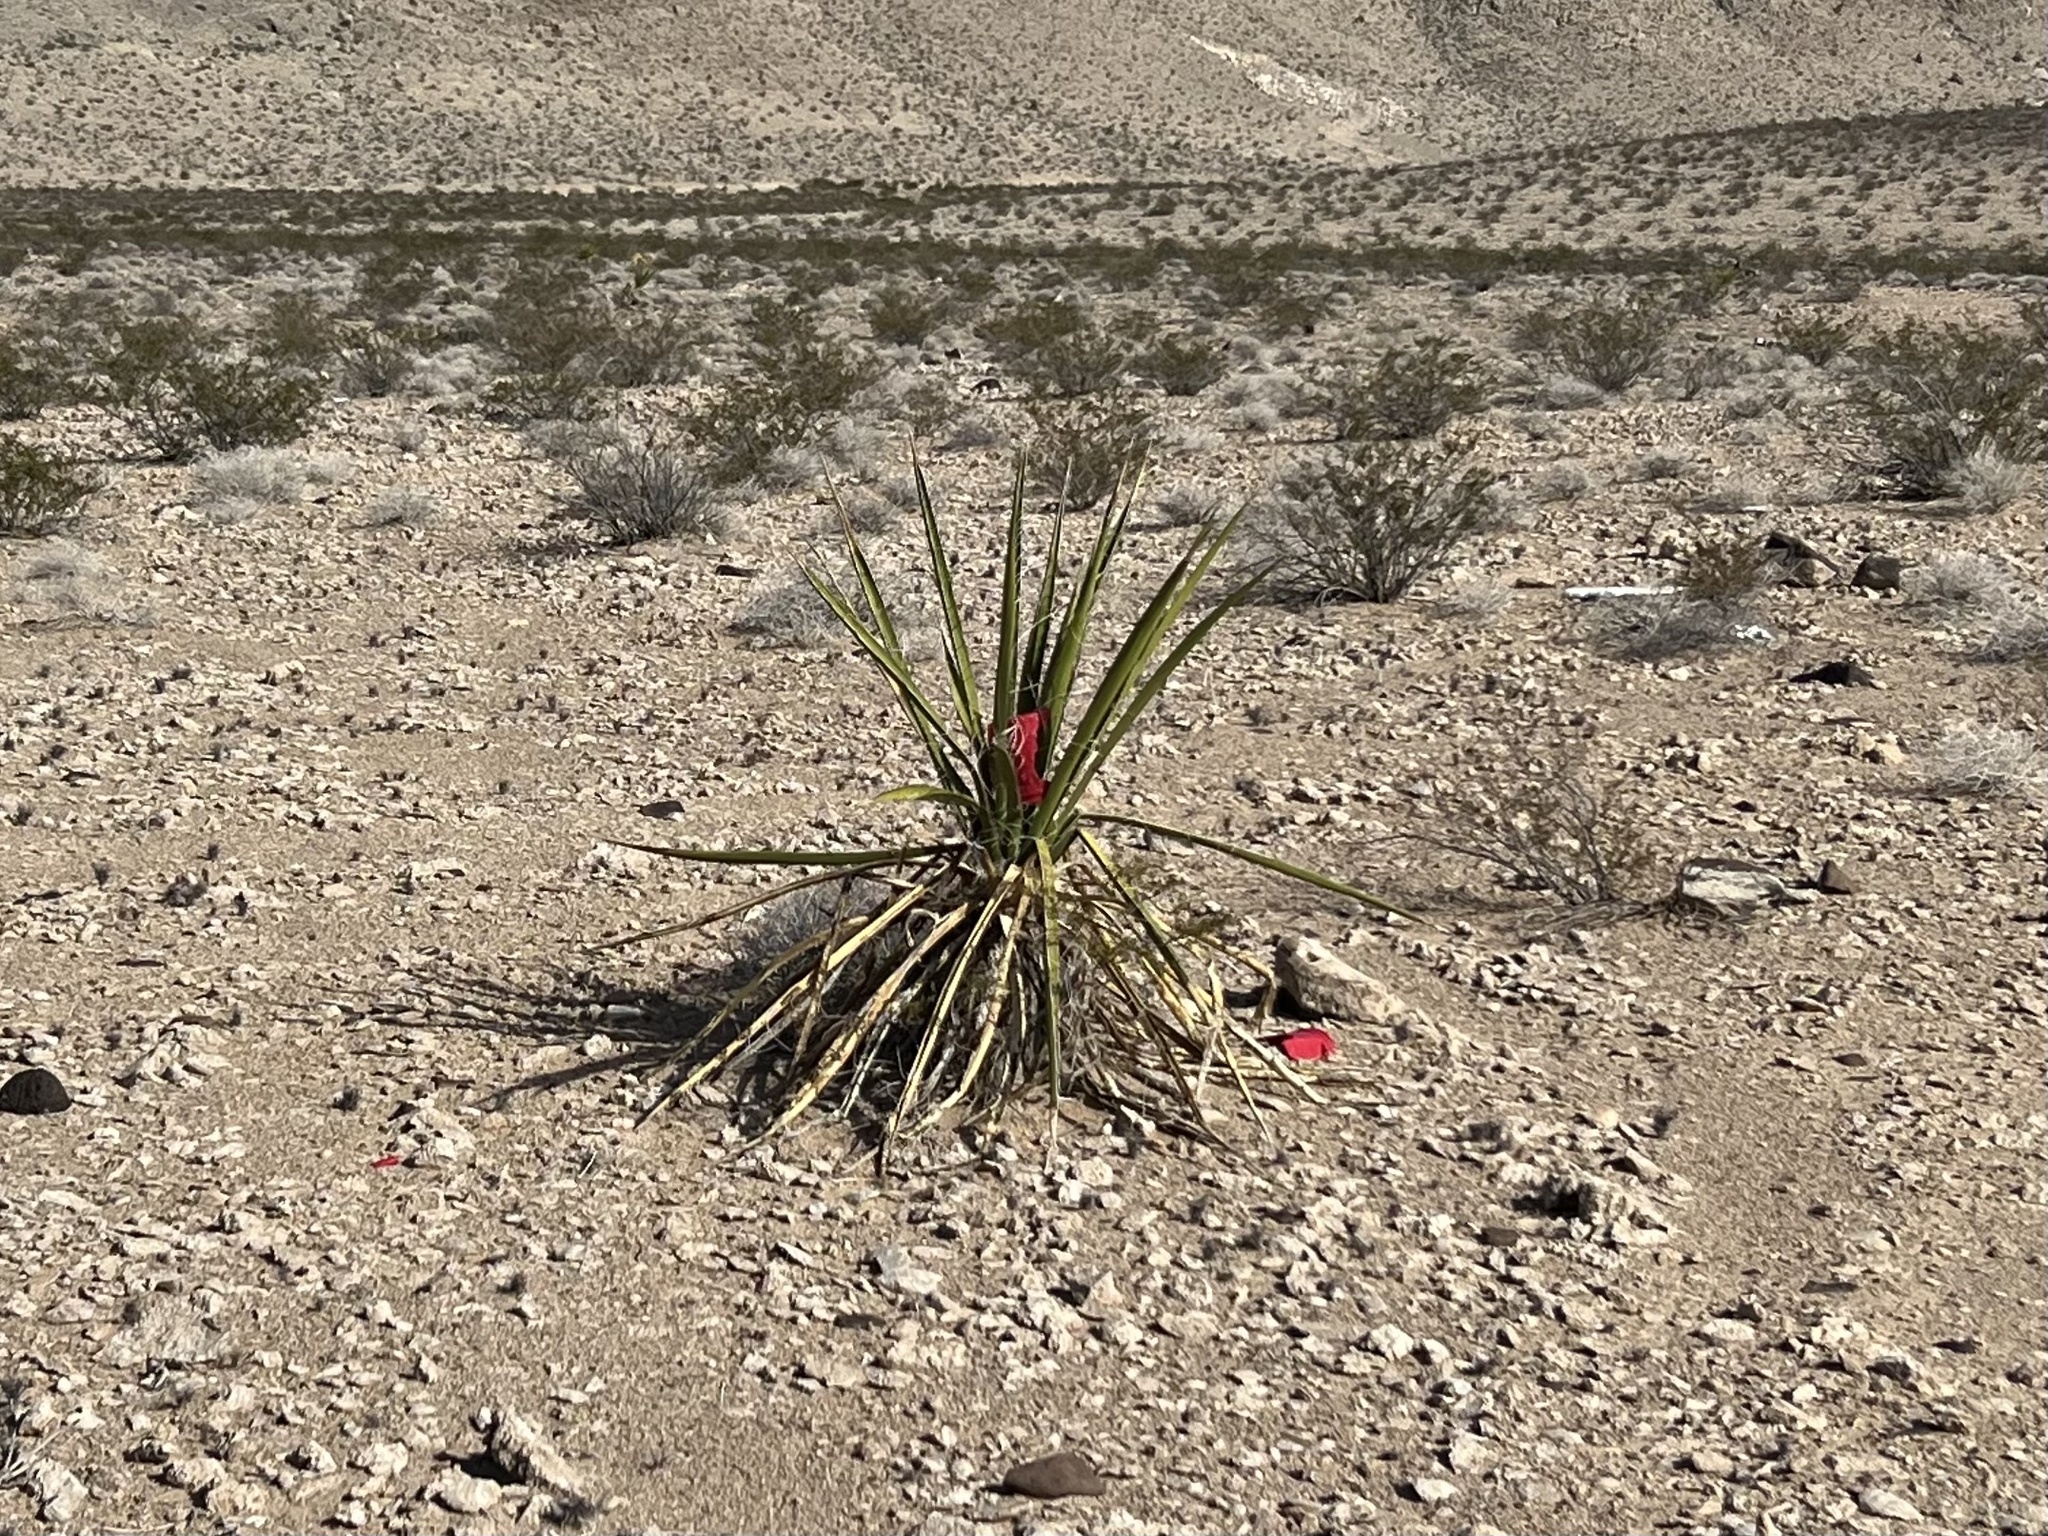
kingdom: Plantae
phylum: Tracheophyta
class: Liliopsida
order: Asparagales
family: Asparagaceae
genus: Yucca
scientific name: Yucca schidigera
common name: Mojave yucca
